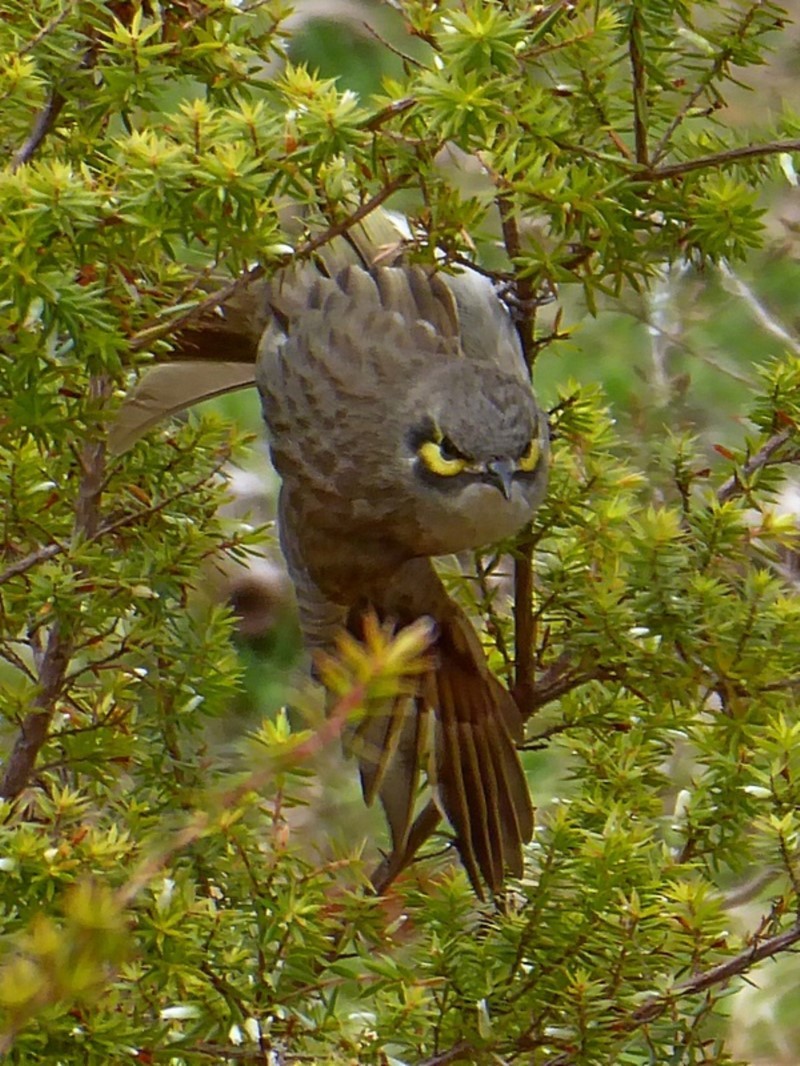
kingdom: Animalia
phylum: Chordata
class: Aves
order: Passeriformes
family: Meliphagidae
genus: Caligavis
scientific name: Caligavis chrysops
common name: Yellow-faced honeyeater
